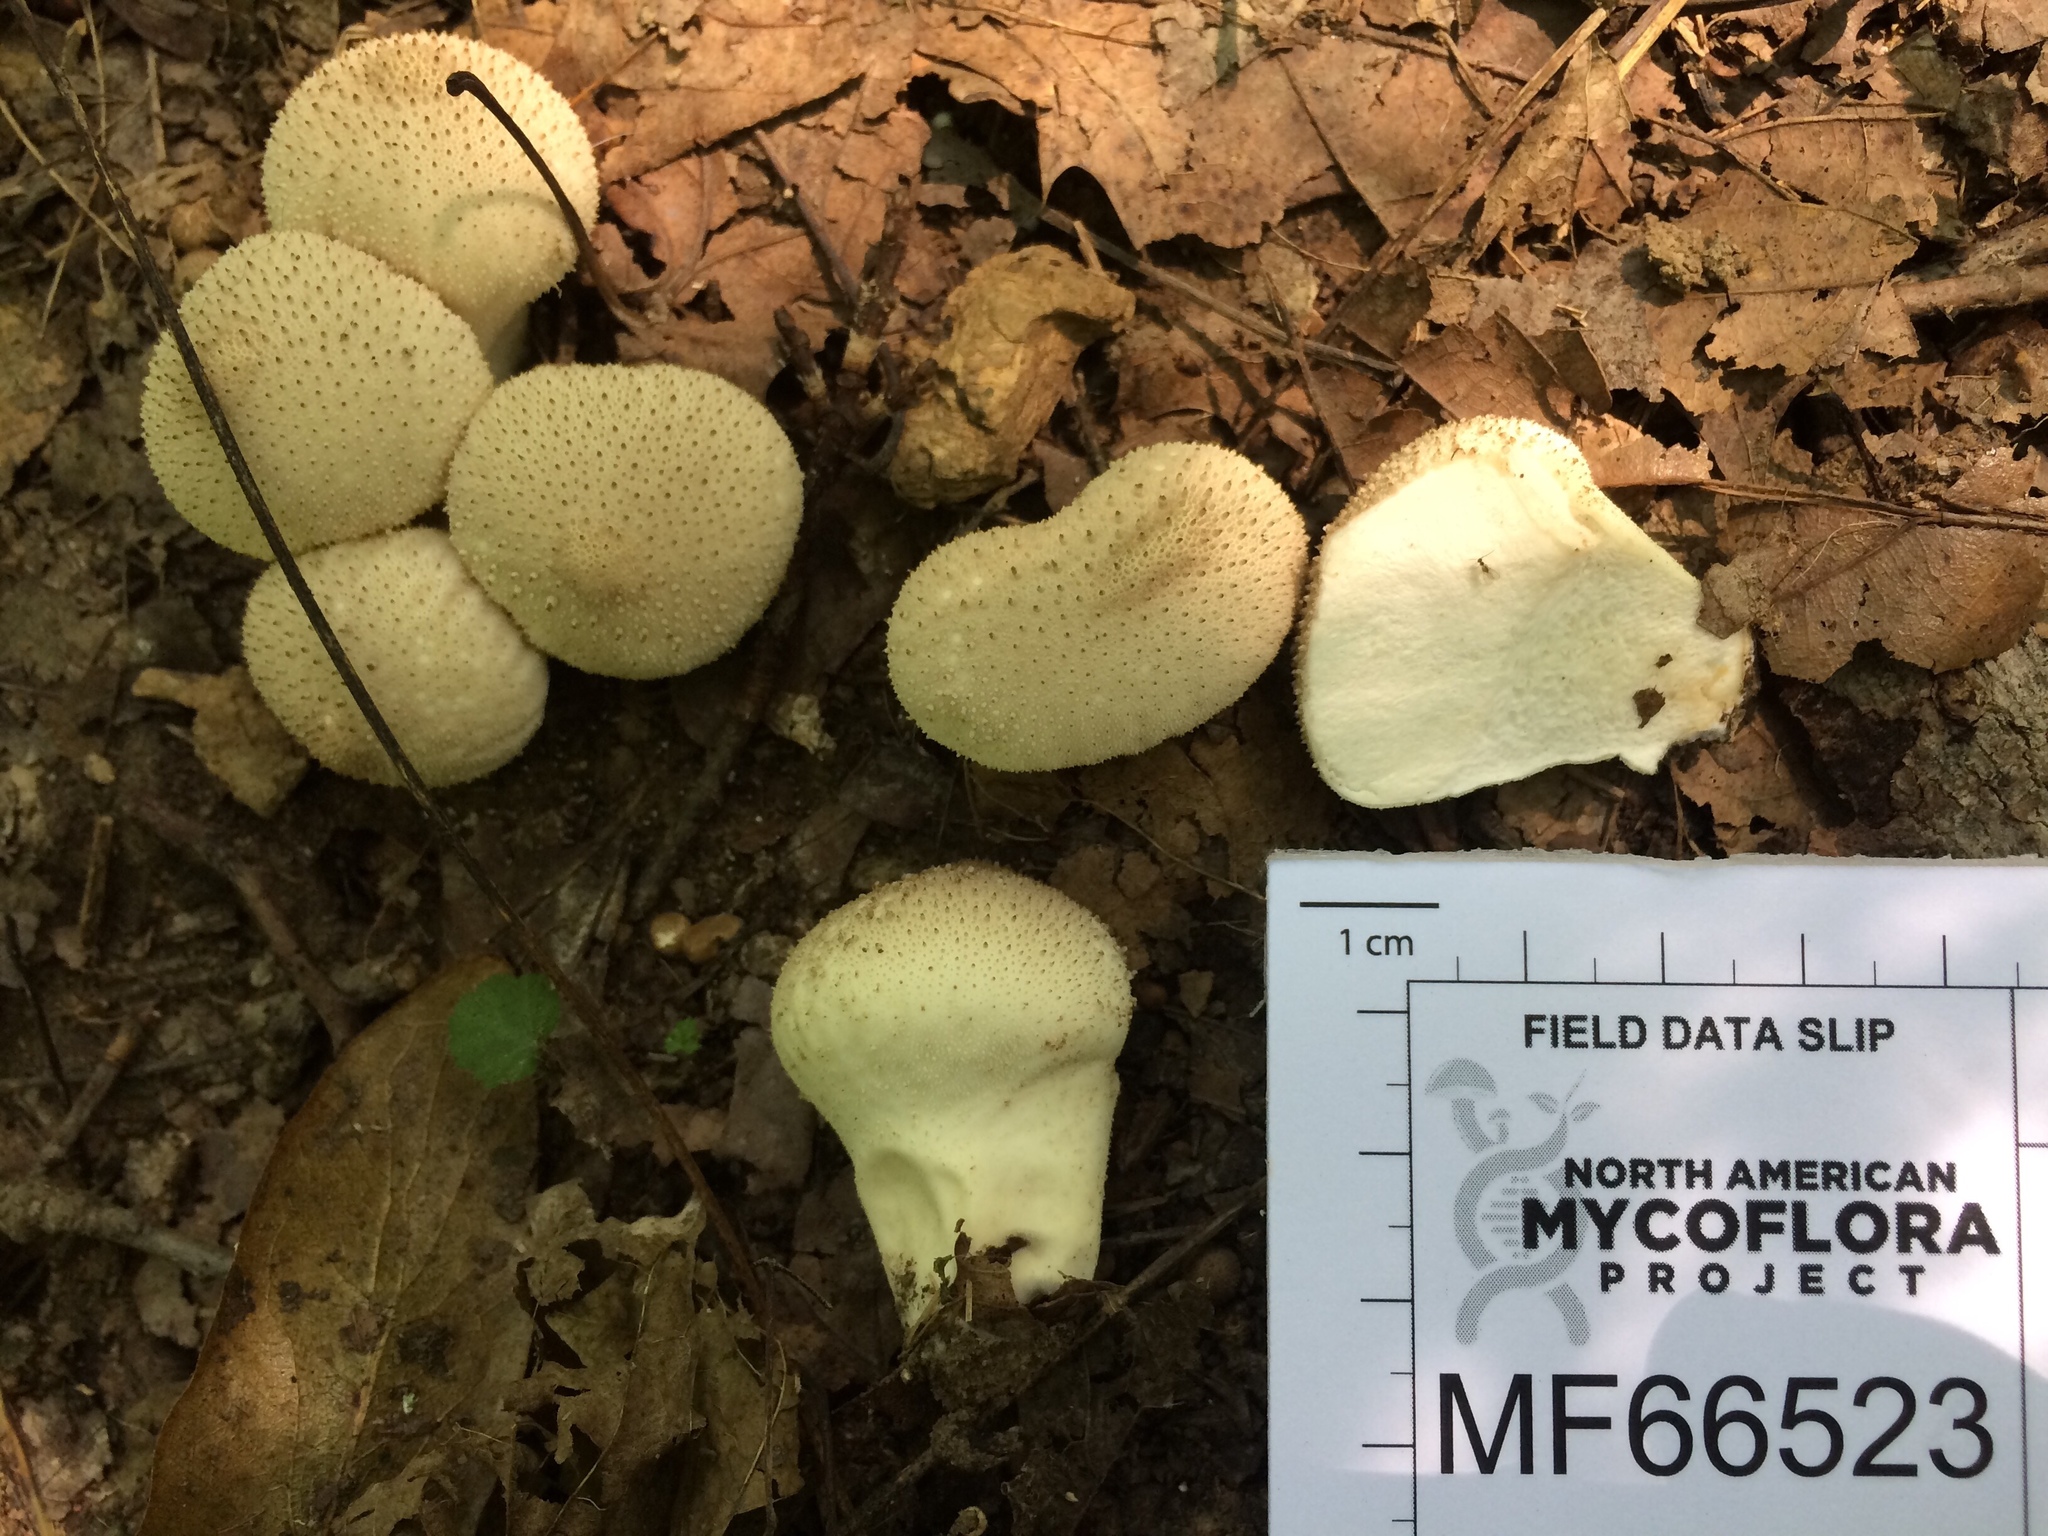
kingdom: Fungi
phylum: Basidiomycota
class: Agaricomycetes
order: Agaricales
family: Lycoperdaceae
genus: Lycoperdon
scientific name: Lycoperdon perlatum
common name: Common puffball
